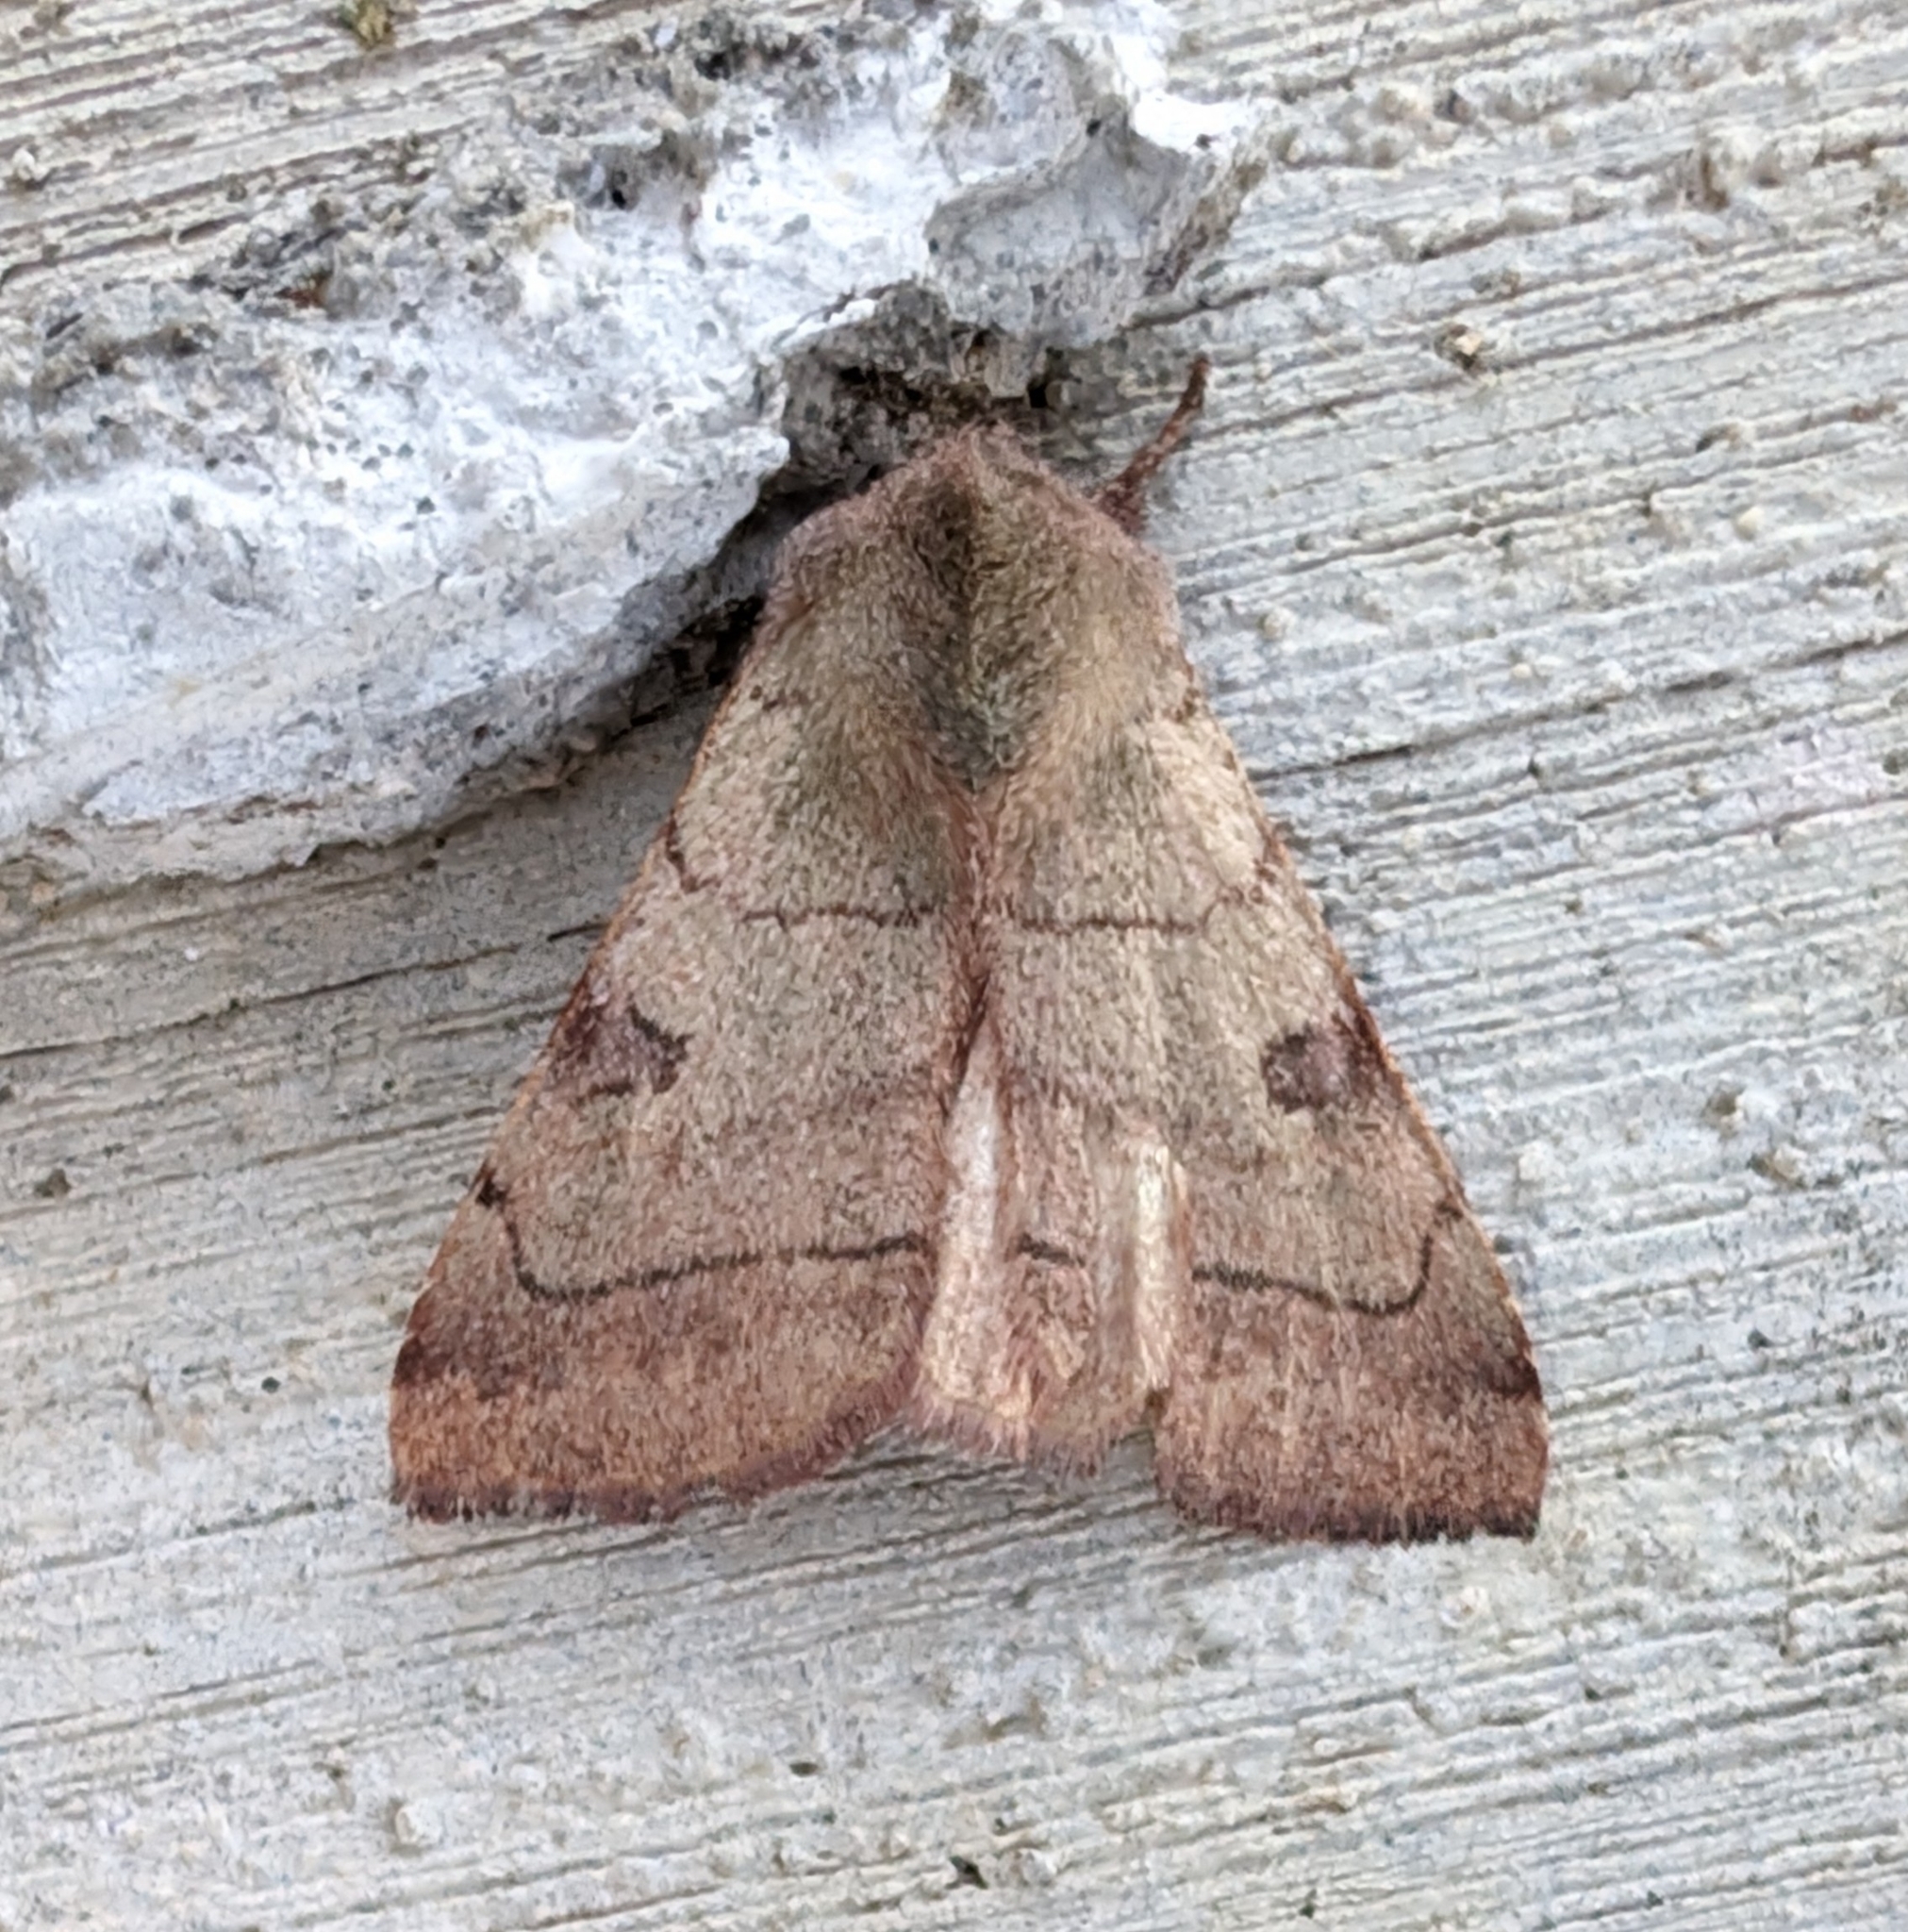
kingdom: Animalia
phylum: Arthropoda
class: Insecta
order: Lepidoptera
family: Noctuidae
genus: Choephora
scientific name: Choephora fungorum
